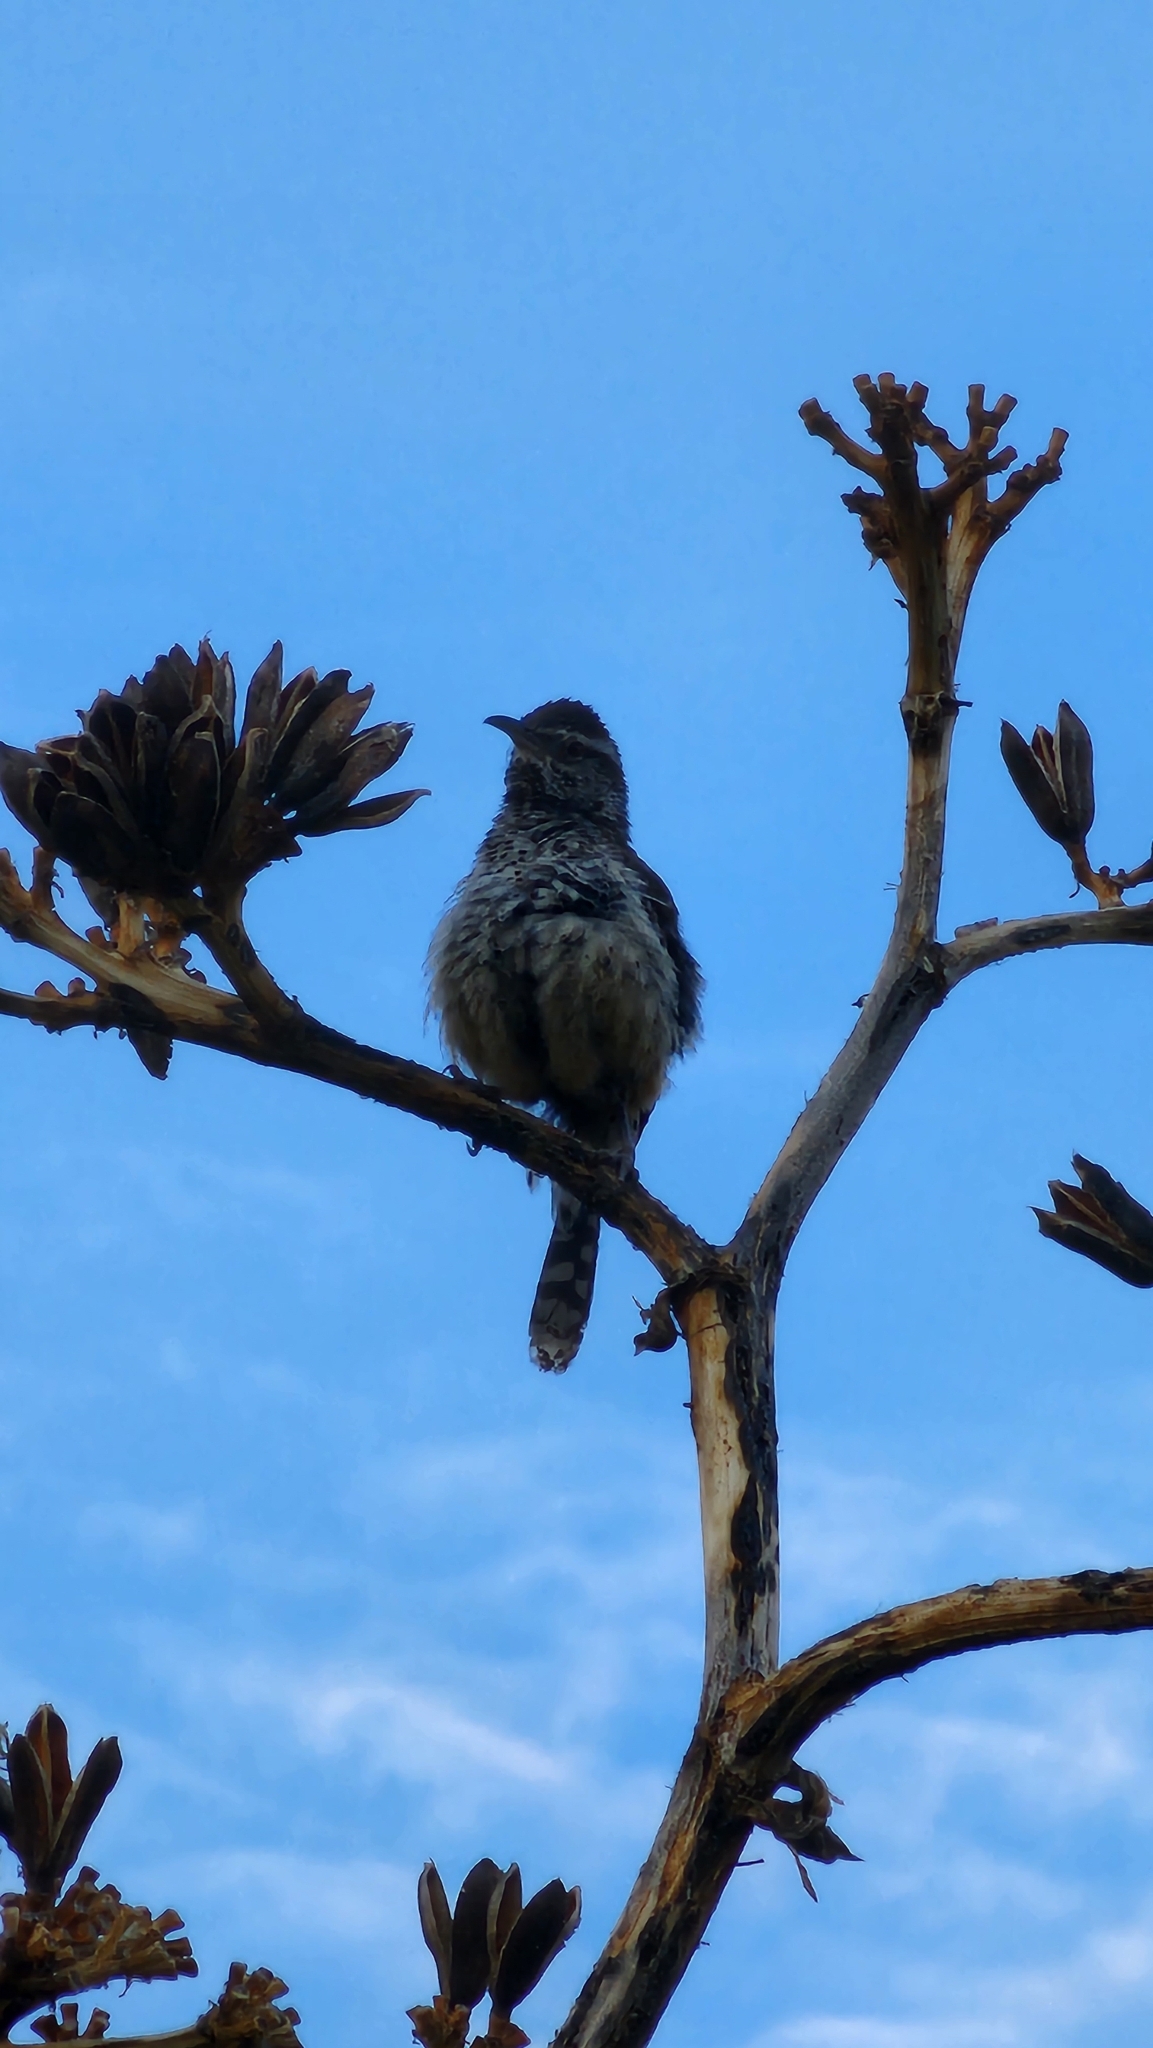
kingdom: Animalia
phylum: Chordata
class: Aves
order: Passeriformes
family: Troglodytidae
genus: Campylorhynchus
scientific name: Campylorhynchus brunneicapillus
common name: Cactus wren
